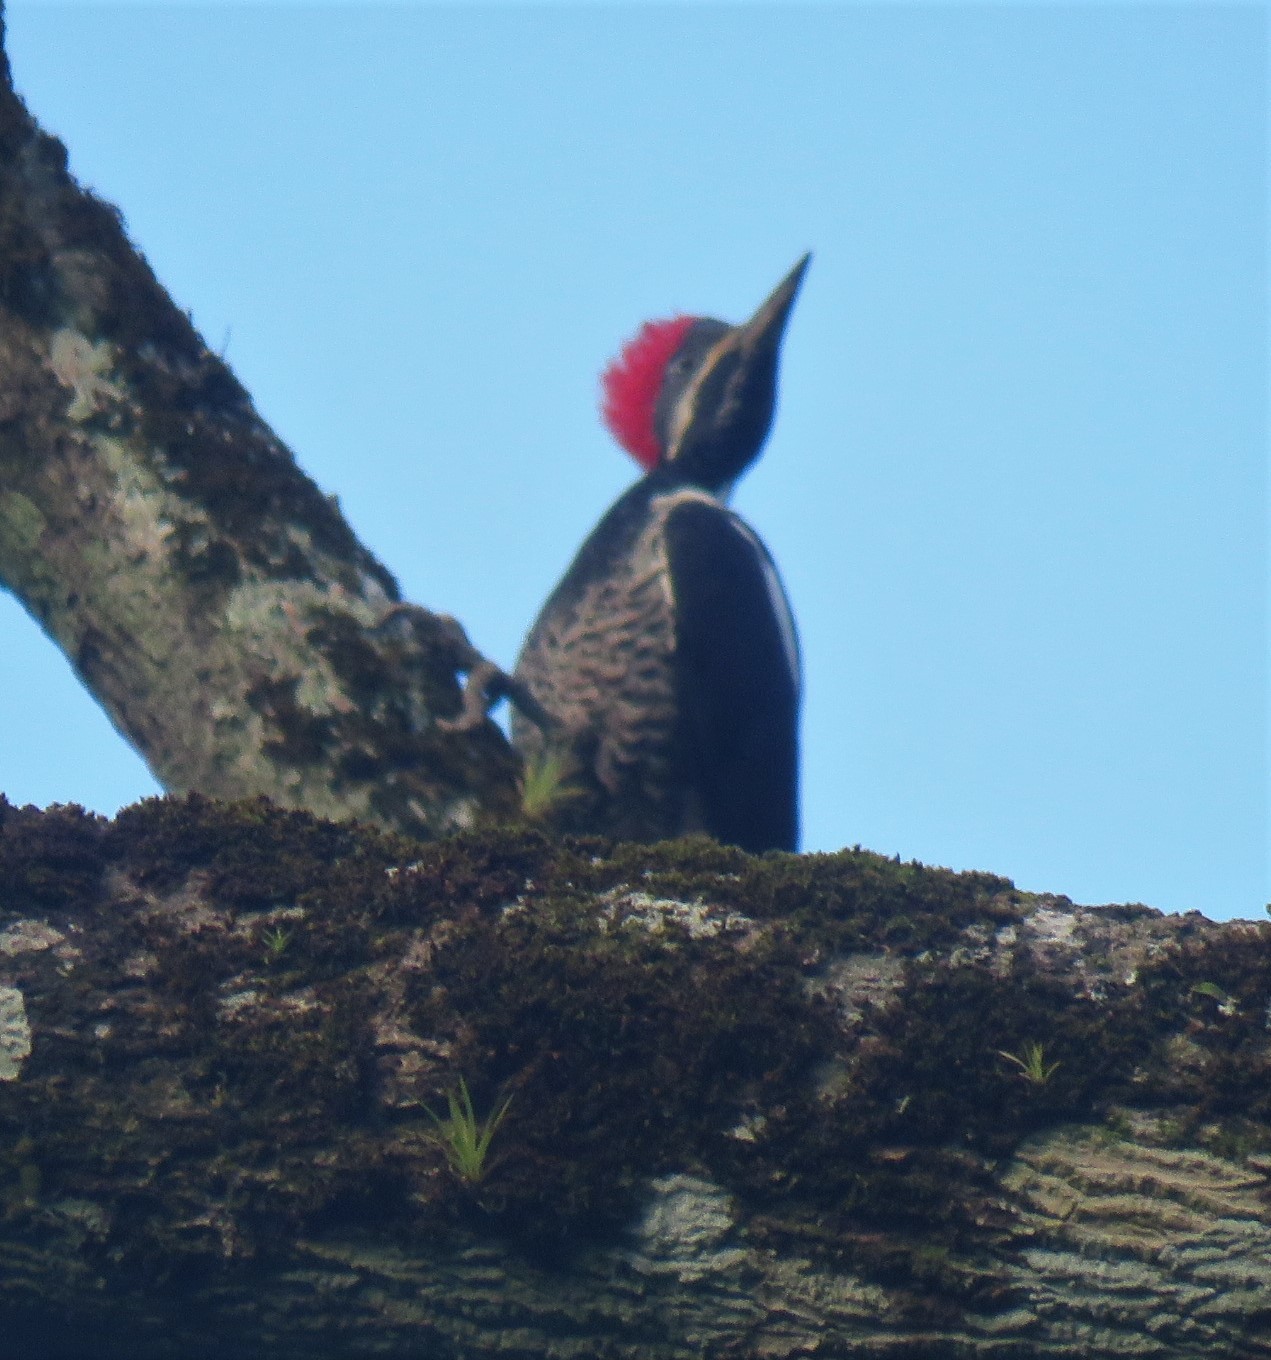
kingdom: Animalia
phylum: Chordata
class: Aves
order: Piciformes
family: Picidae
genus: Dryocopus
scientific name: Dryocopus lineatus
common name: Lineated woodpecker
